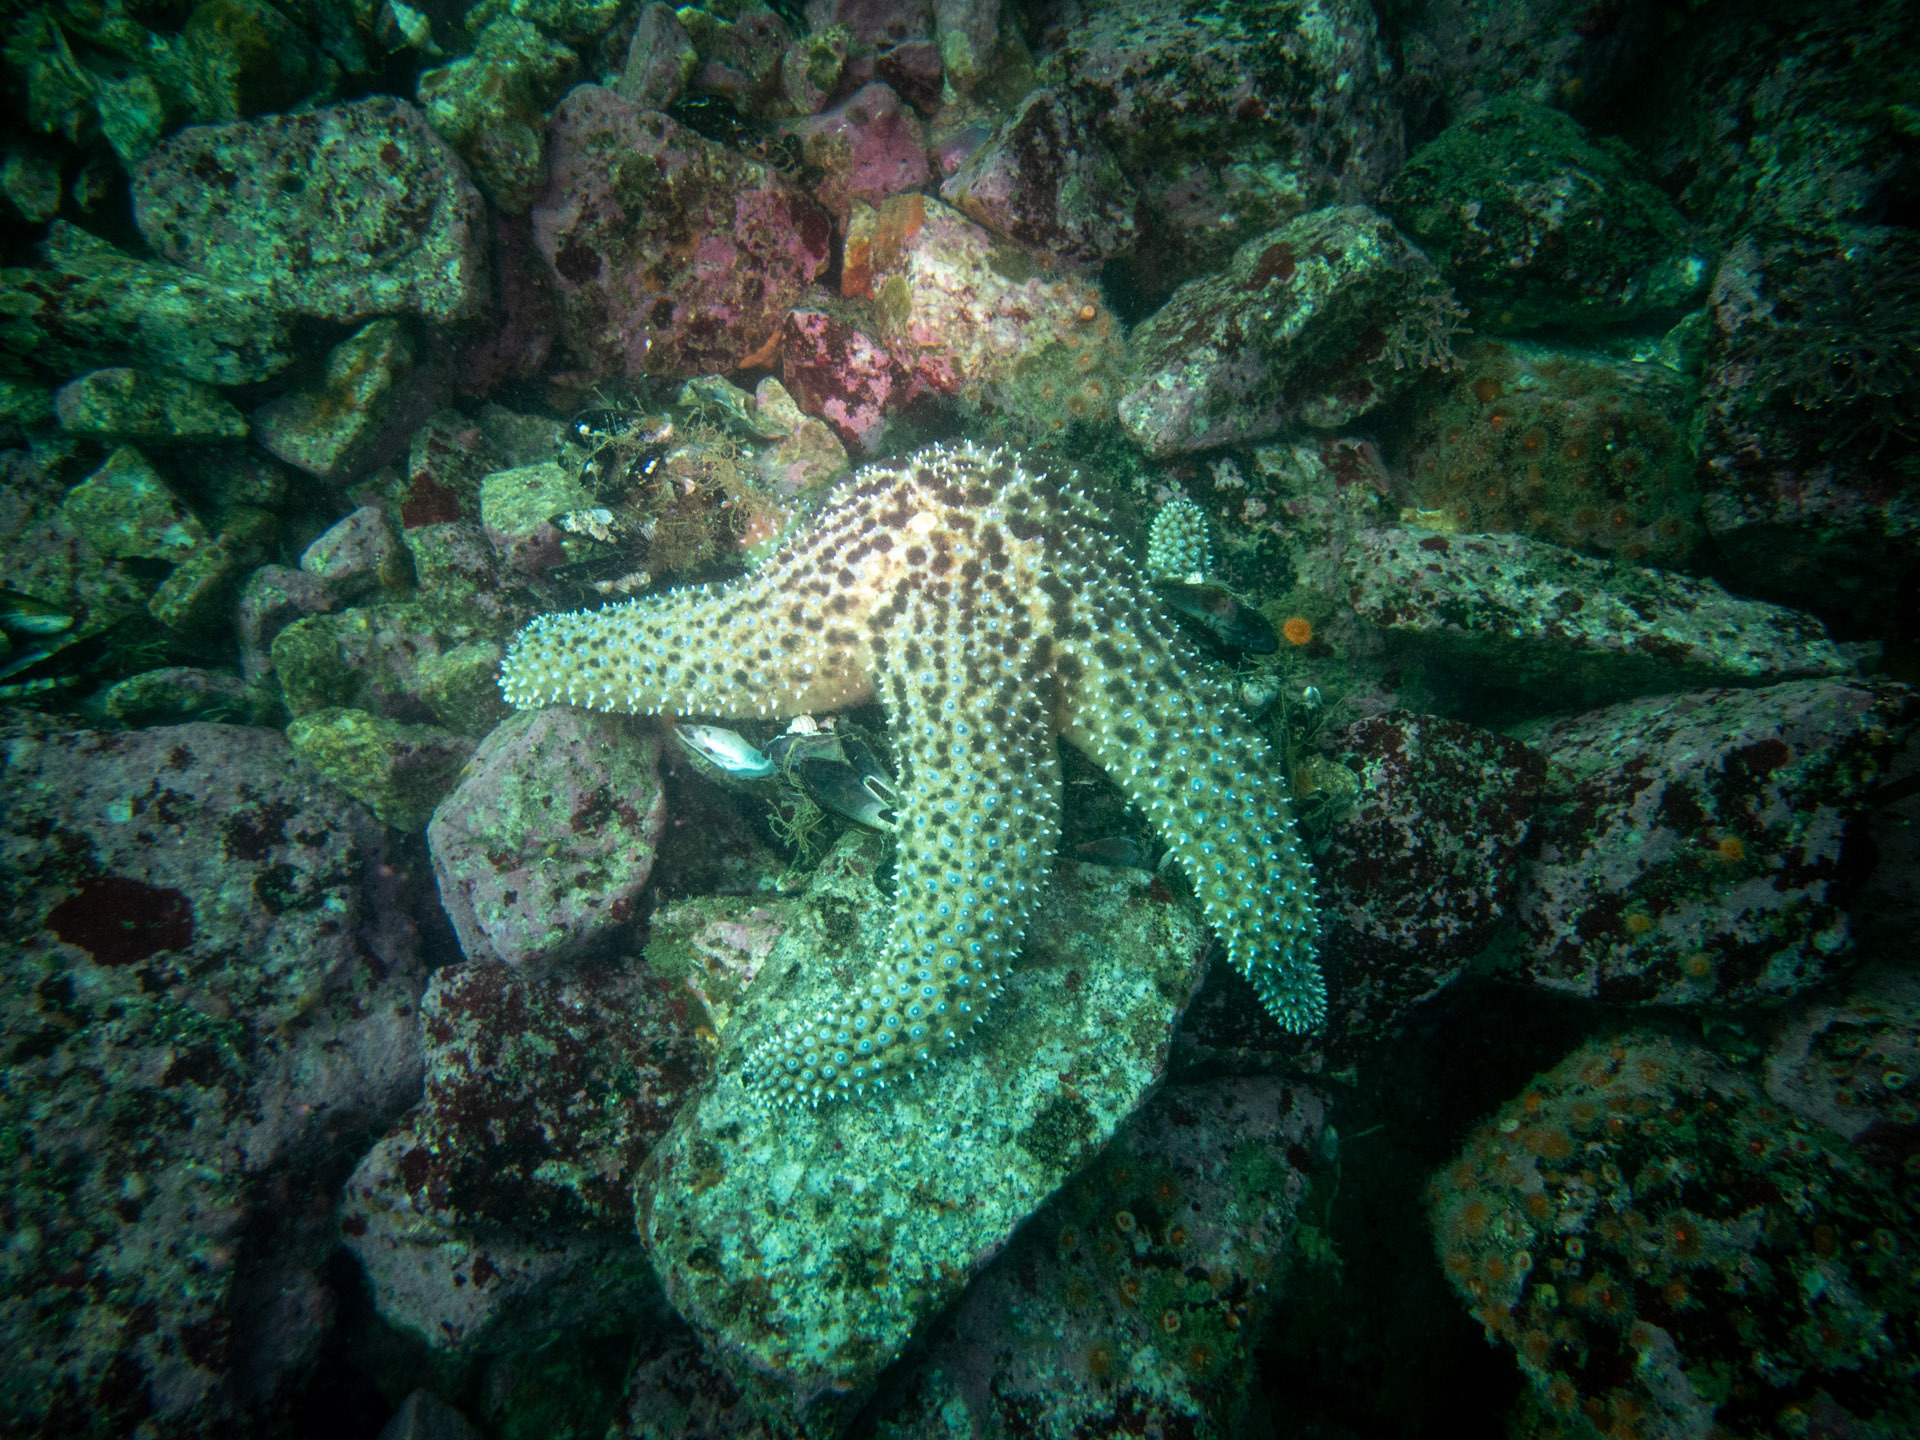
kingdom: Animalia
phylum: Echinodermata
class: Asteroidea
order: Forcipulatida
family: Asteriidae
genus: Pisaster
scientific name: Pisaster giganteus
